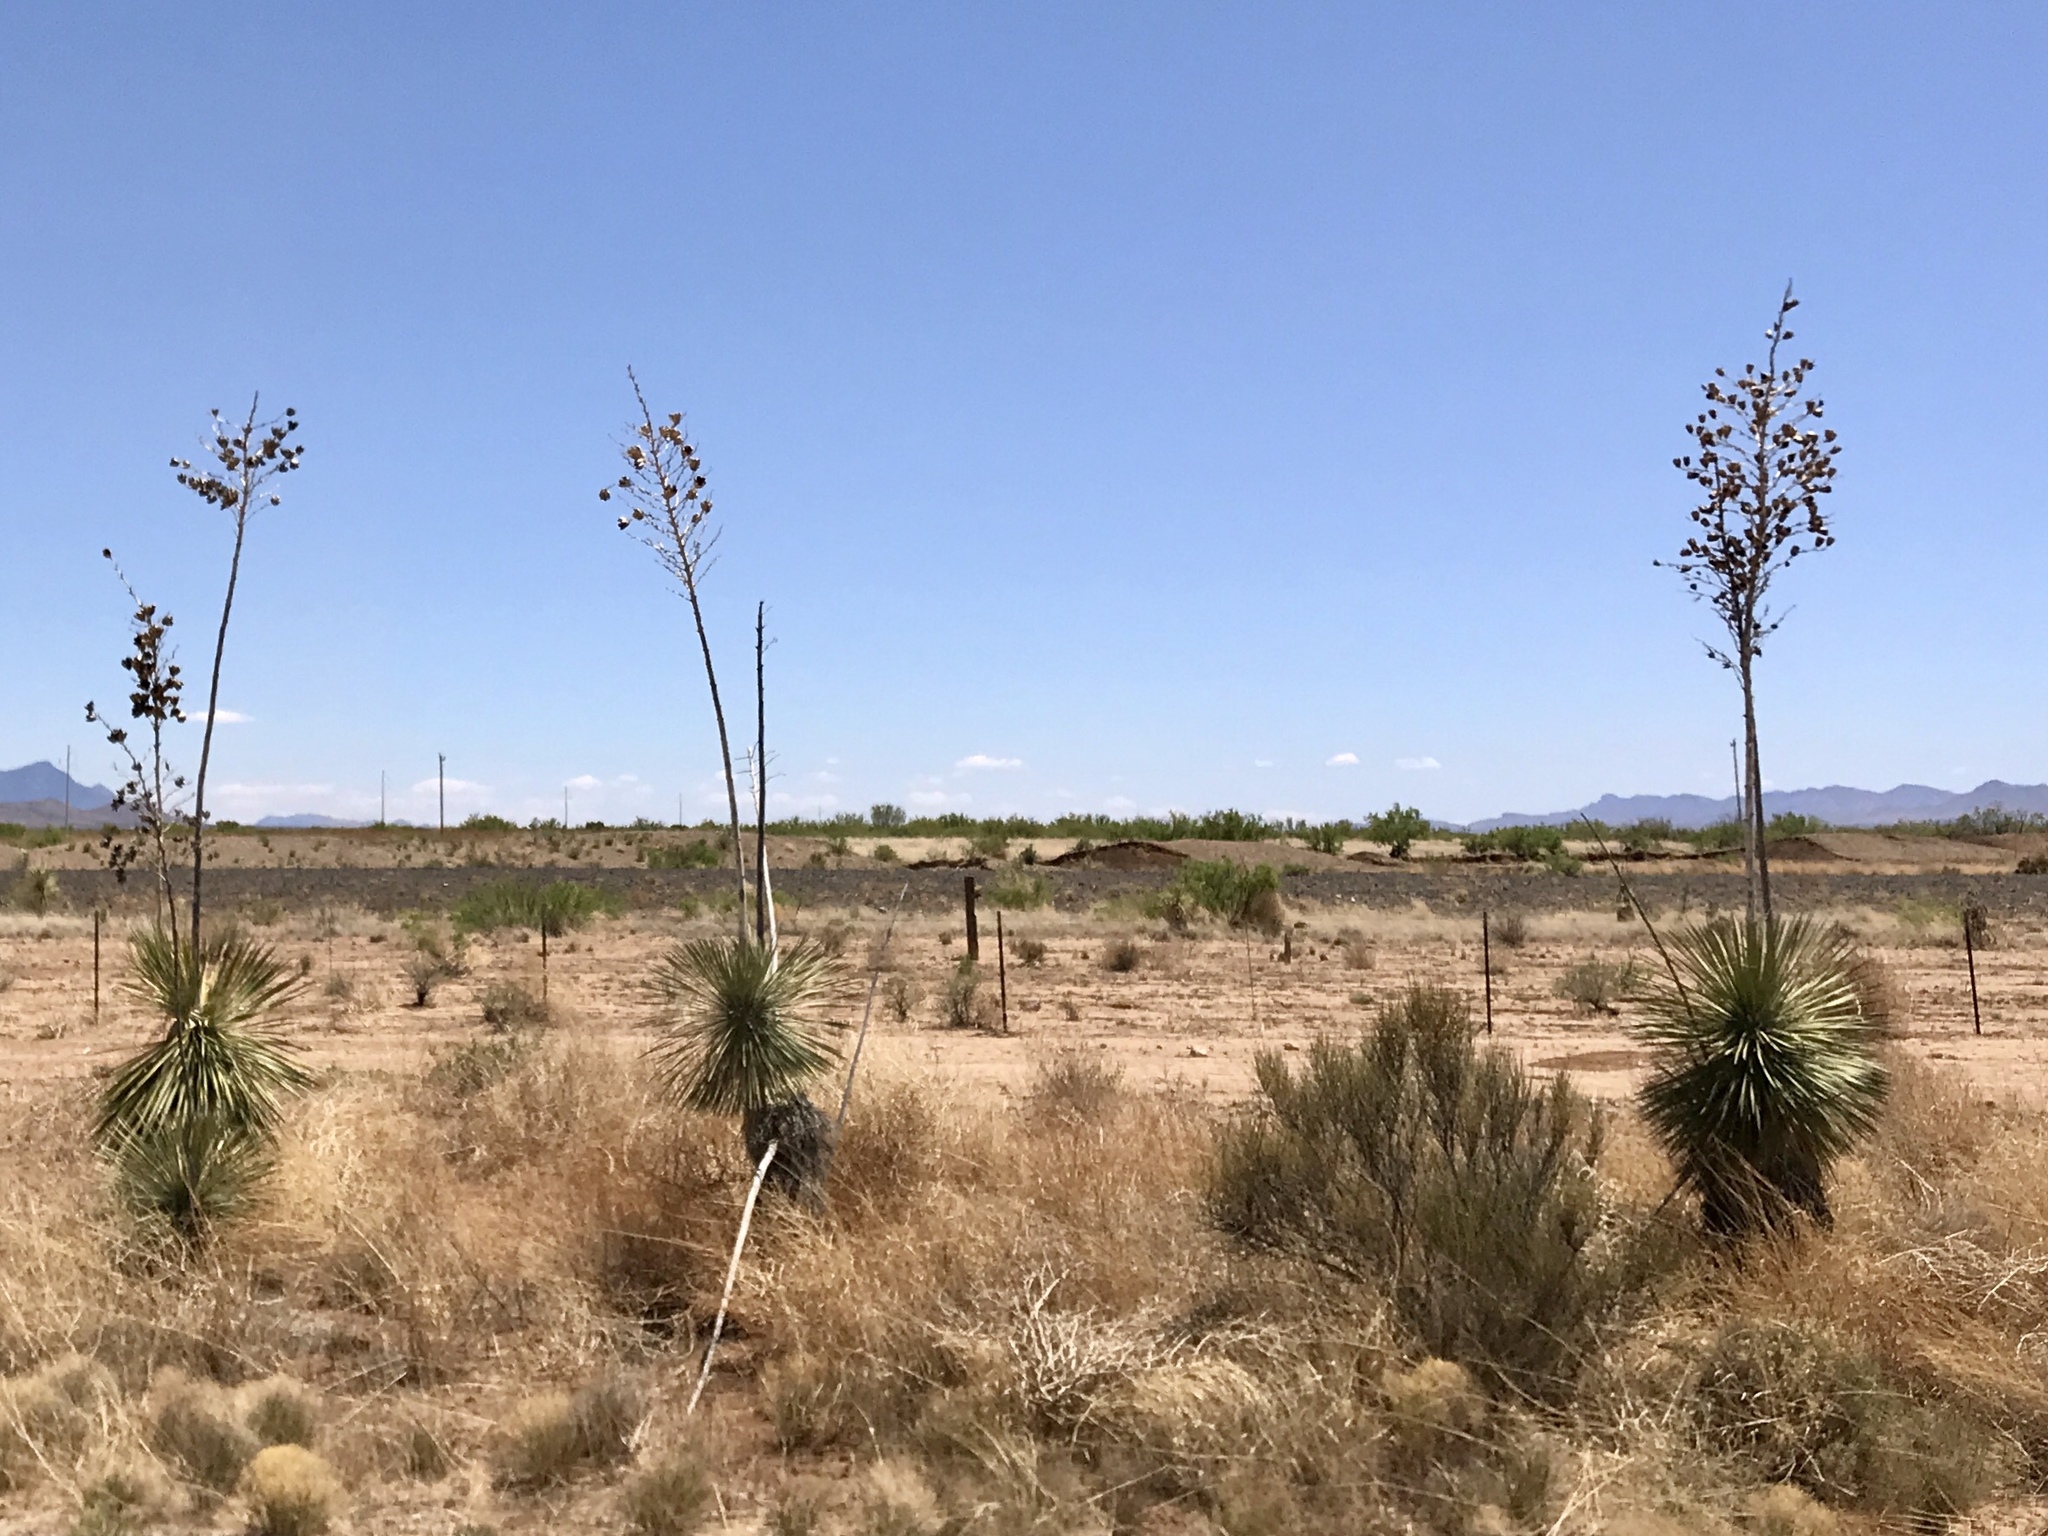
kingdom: Plantae
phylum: Tracheophyta
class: Liliopsida
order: Asparagales
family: Asparagaceae
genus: Yucca
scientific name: Yucca elata
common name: Palmella
